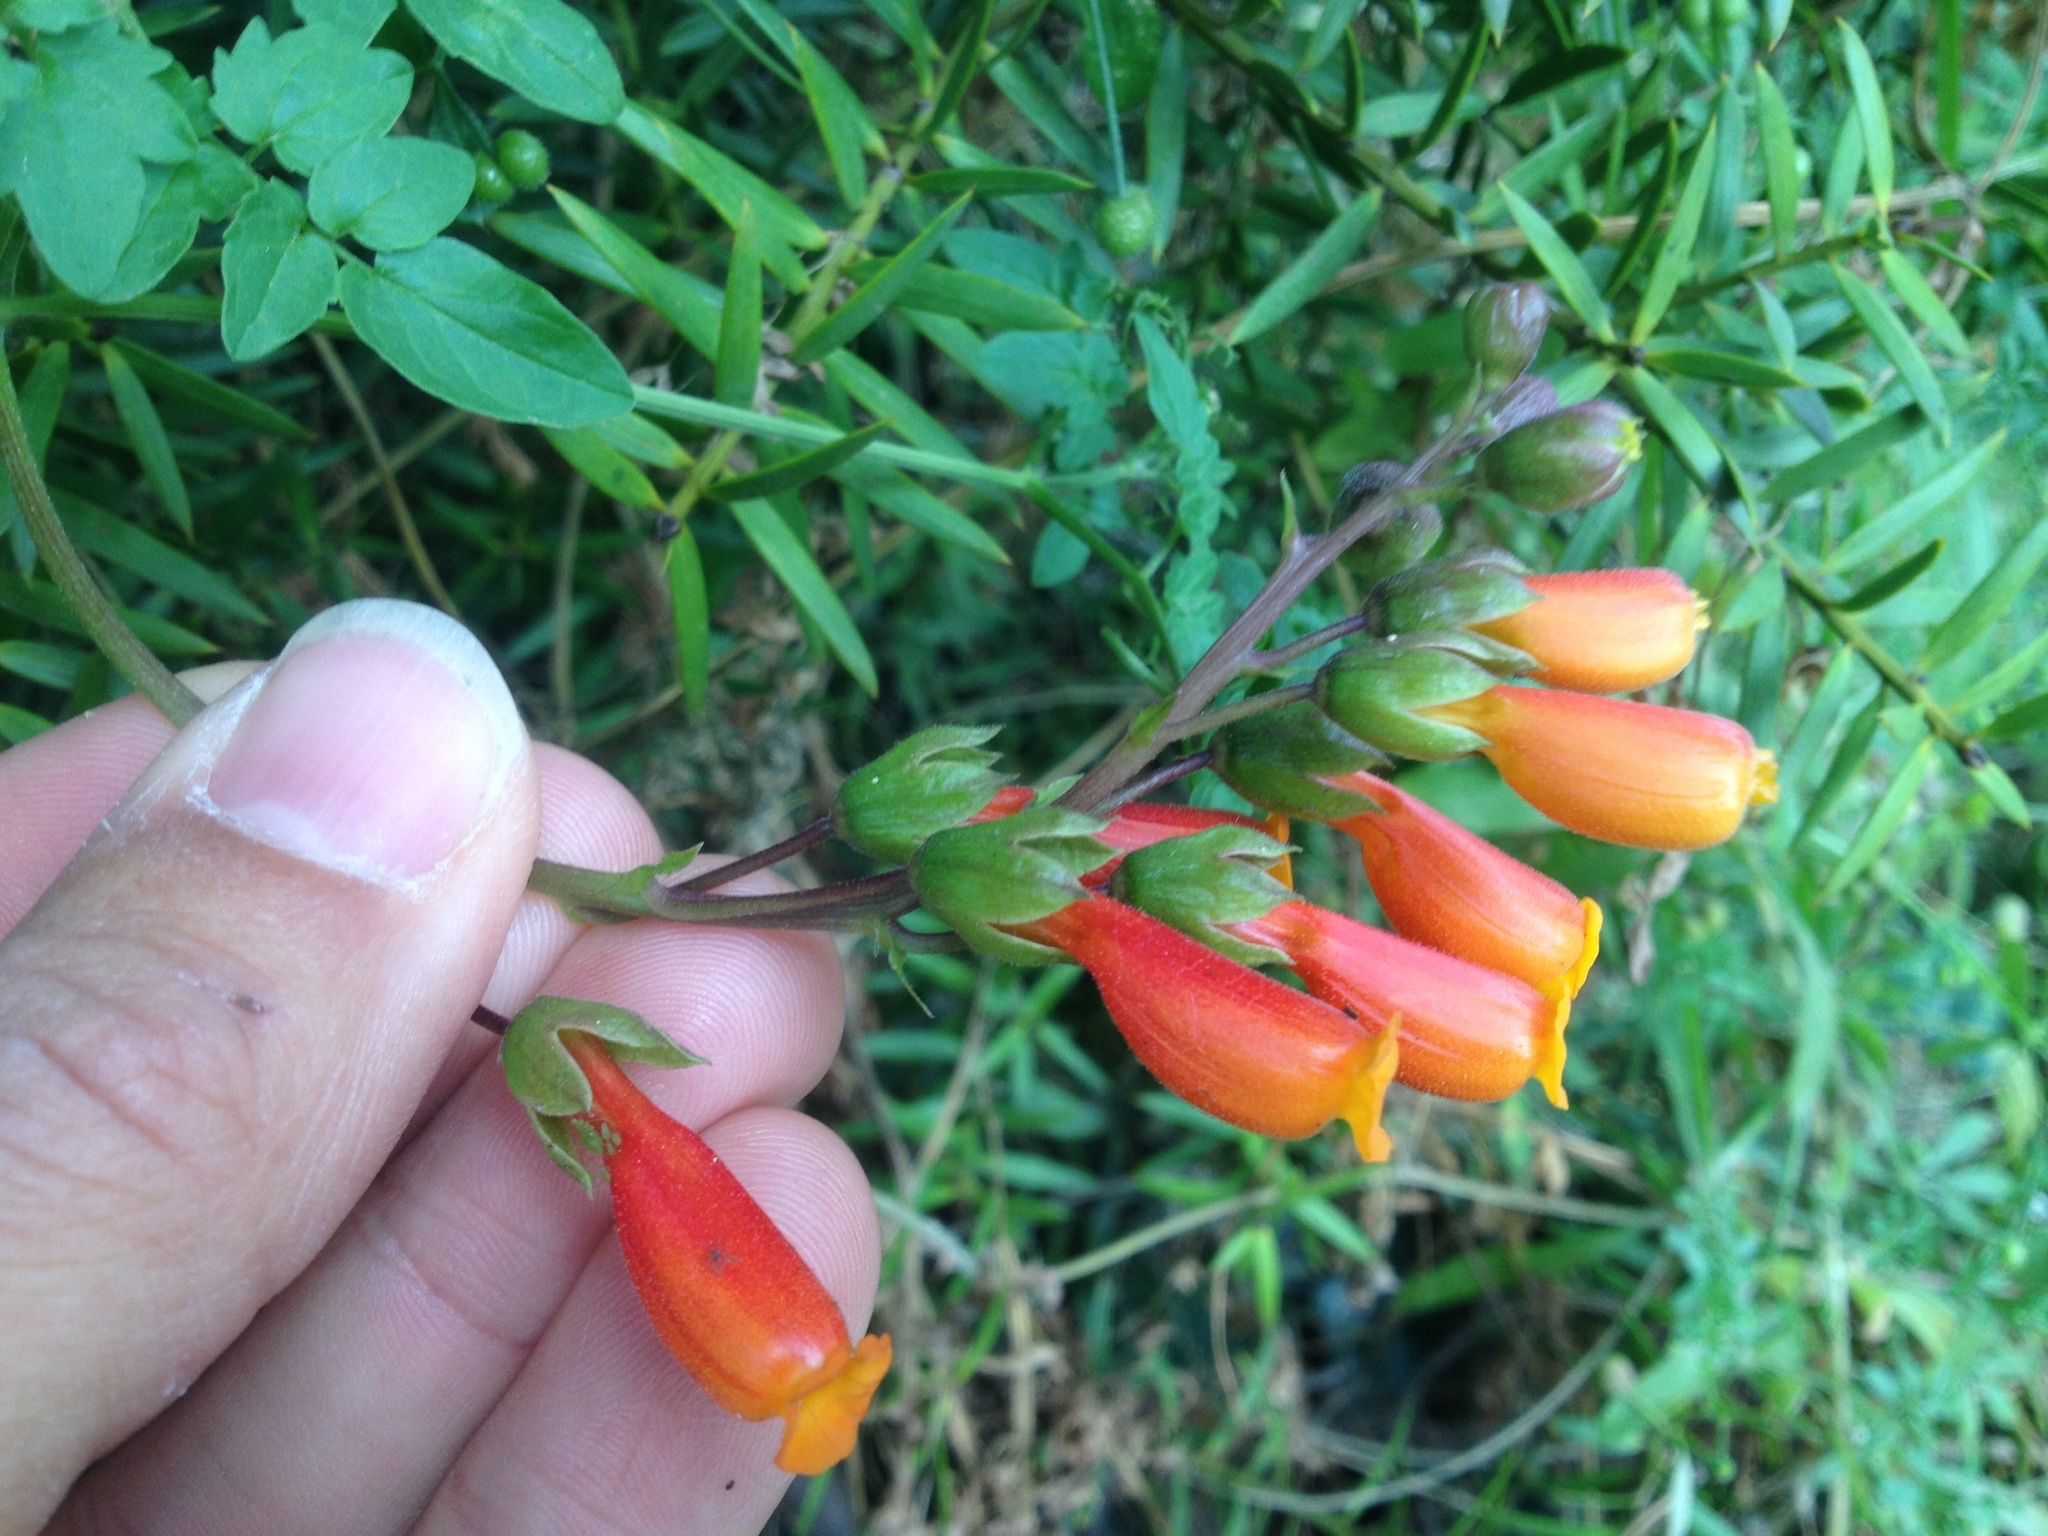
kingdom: Plantae
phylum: Tracheophyta
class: Magnoliopsida
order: Lamiales
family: Bignoniaceae
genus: Eccremocarpus
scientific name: Eccremocarpus scaber
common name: Chilean glory-flower
